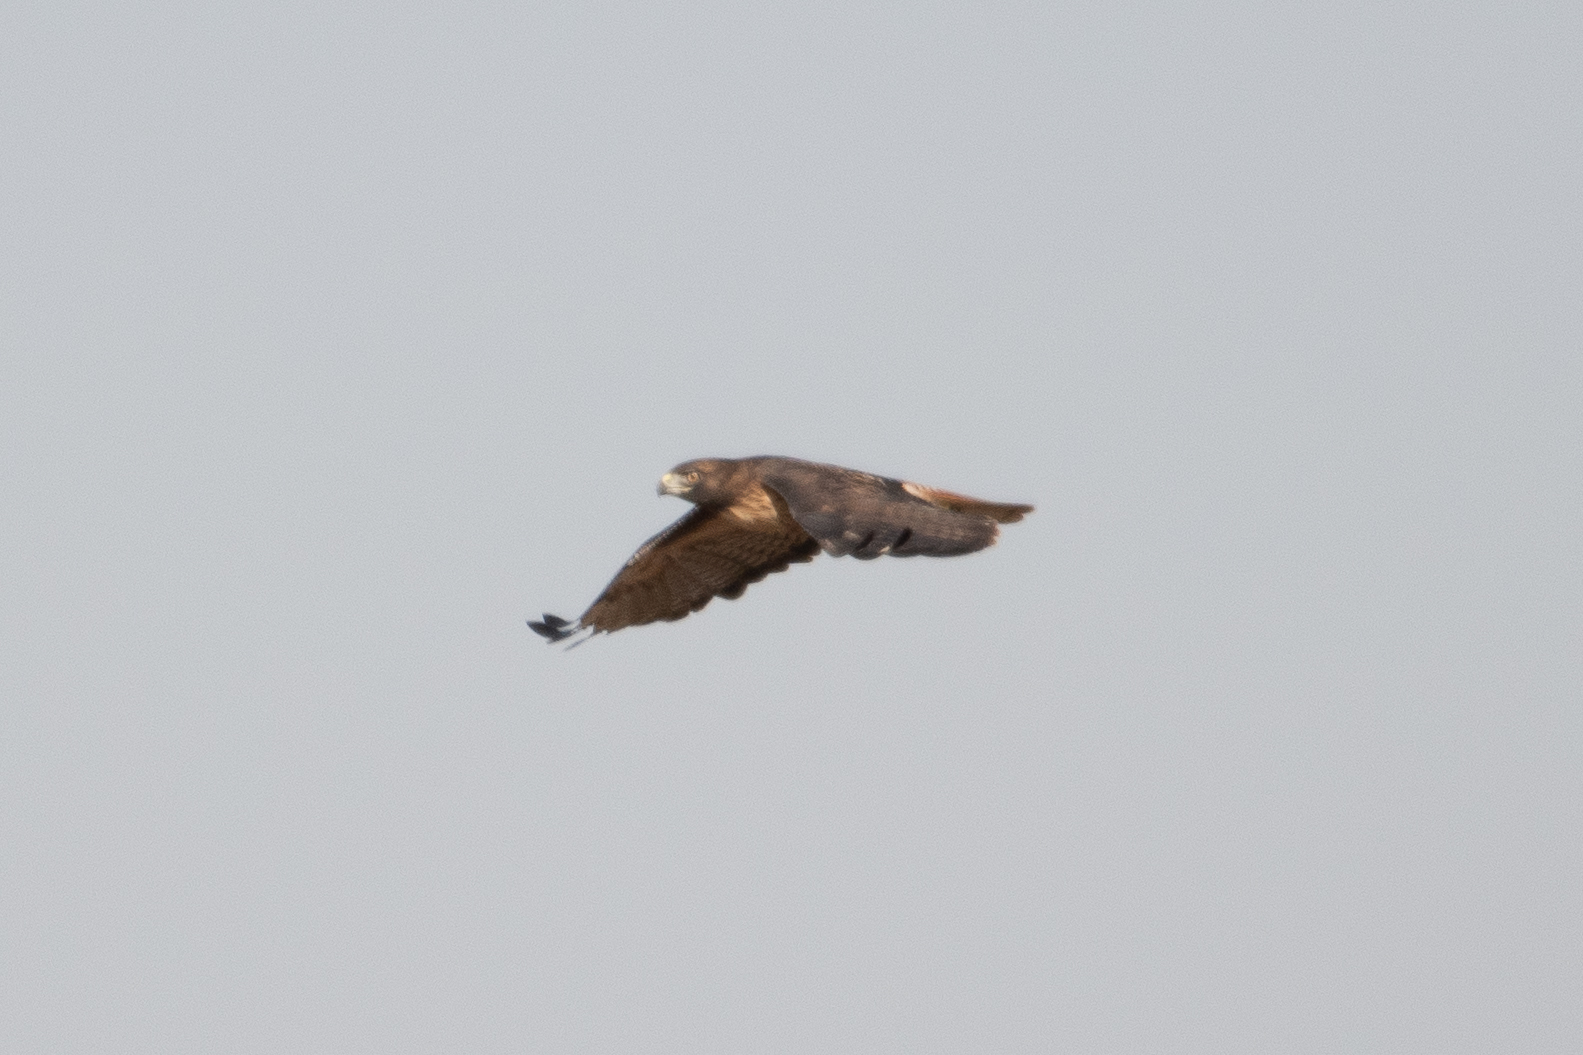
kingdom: Animalia
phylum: Chordata
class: Aves
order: Accipitriformes
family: Accipitridae
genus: Buteo
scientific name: Buteo jamaicensis
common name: Red-tailed hawk
